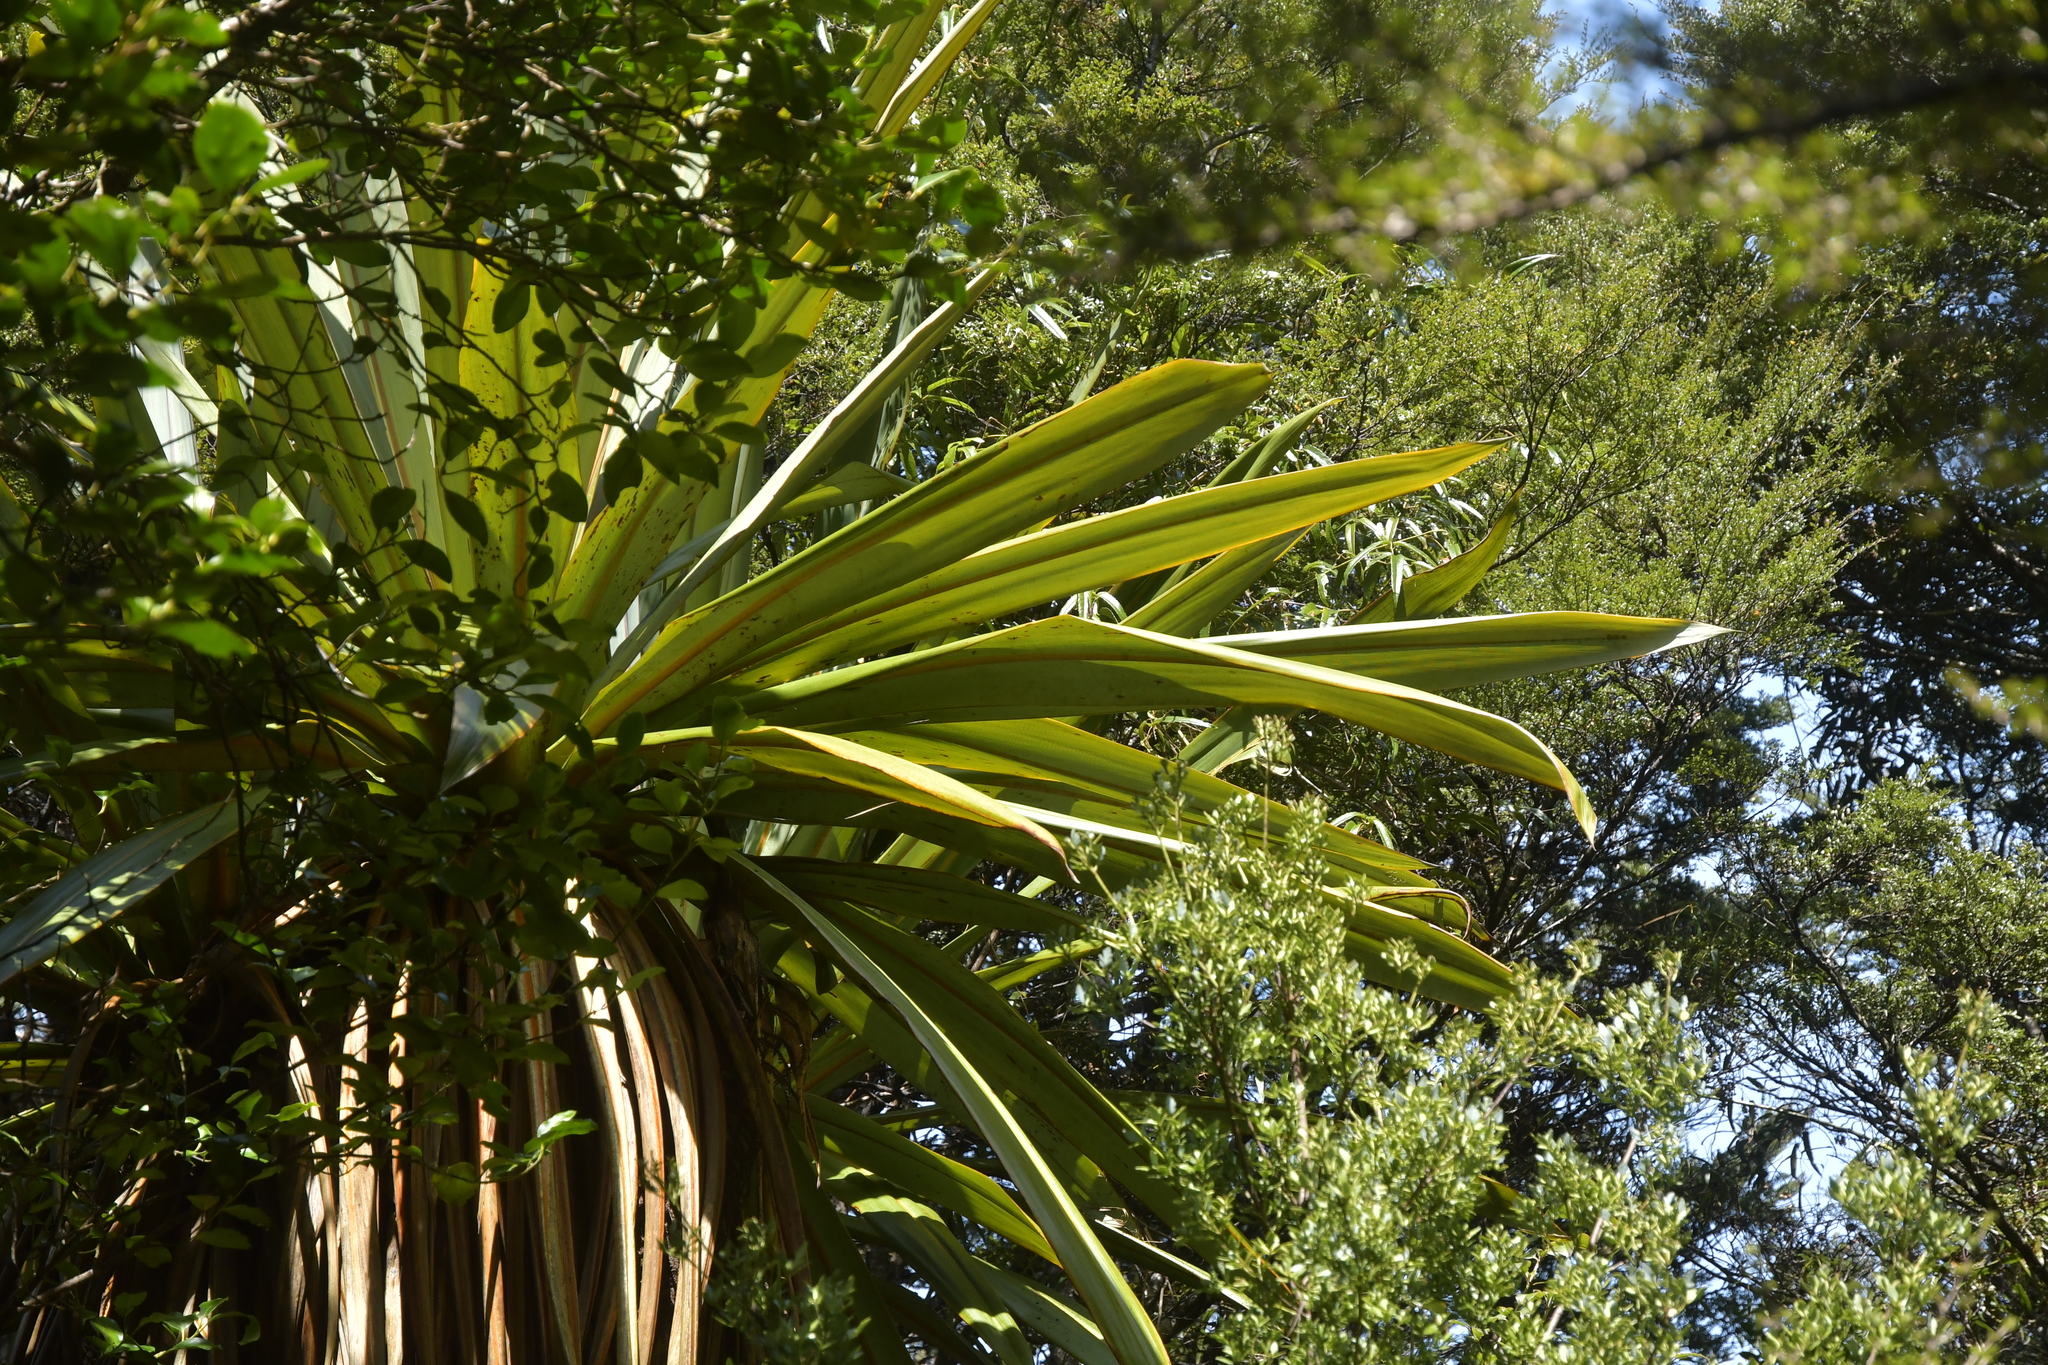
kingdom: Plantae
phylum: Tracheophyta
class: Liliopsida
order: Asparagales
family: Asparagaceae
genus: Cordyline
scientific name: Cordyline indivisa
